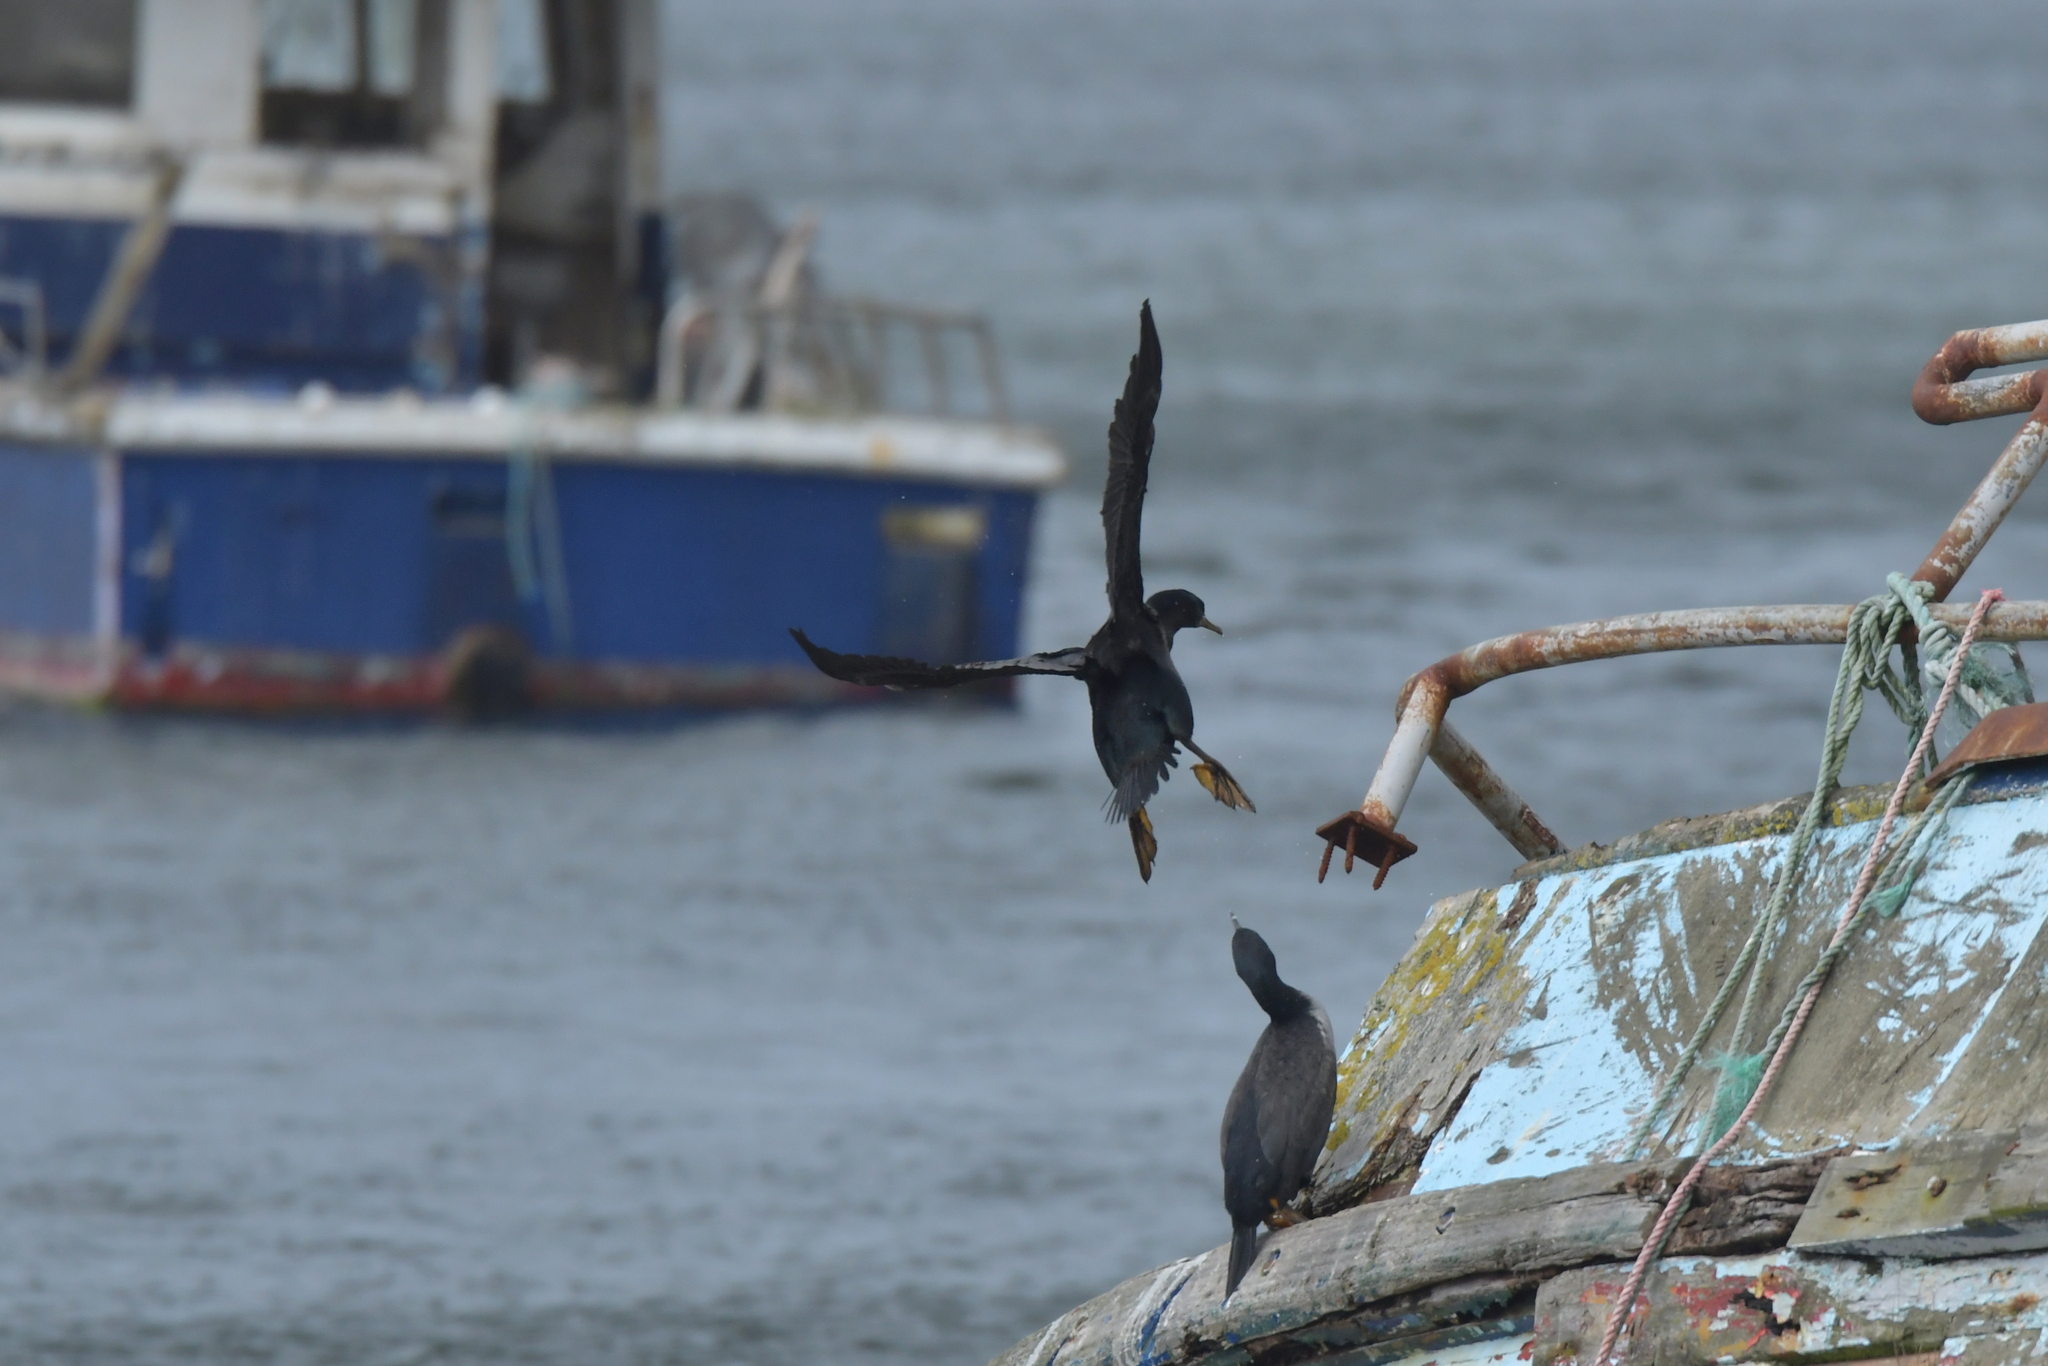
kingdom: Animalia
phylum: Chordata
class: Aves
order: Suliformes
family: Phalacrocoracidae
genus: Phalacrocorax
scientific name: Phalacrocorax featherstoni
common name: Pitt shag
